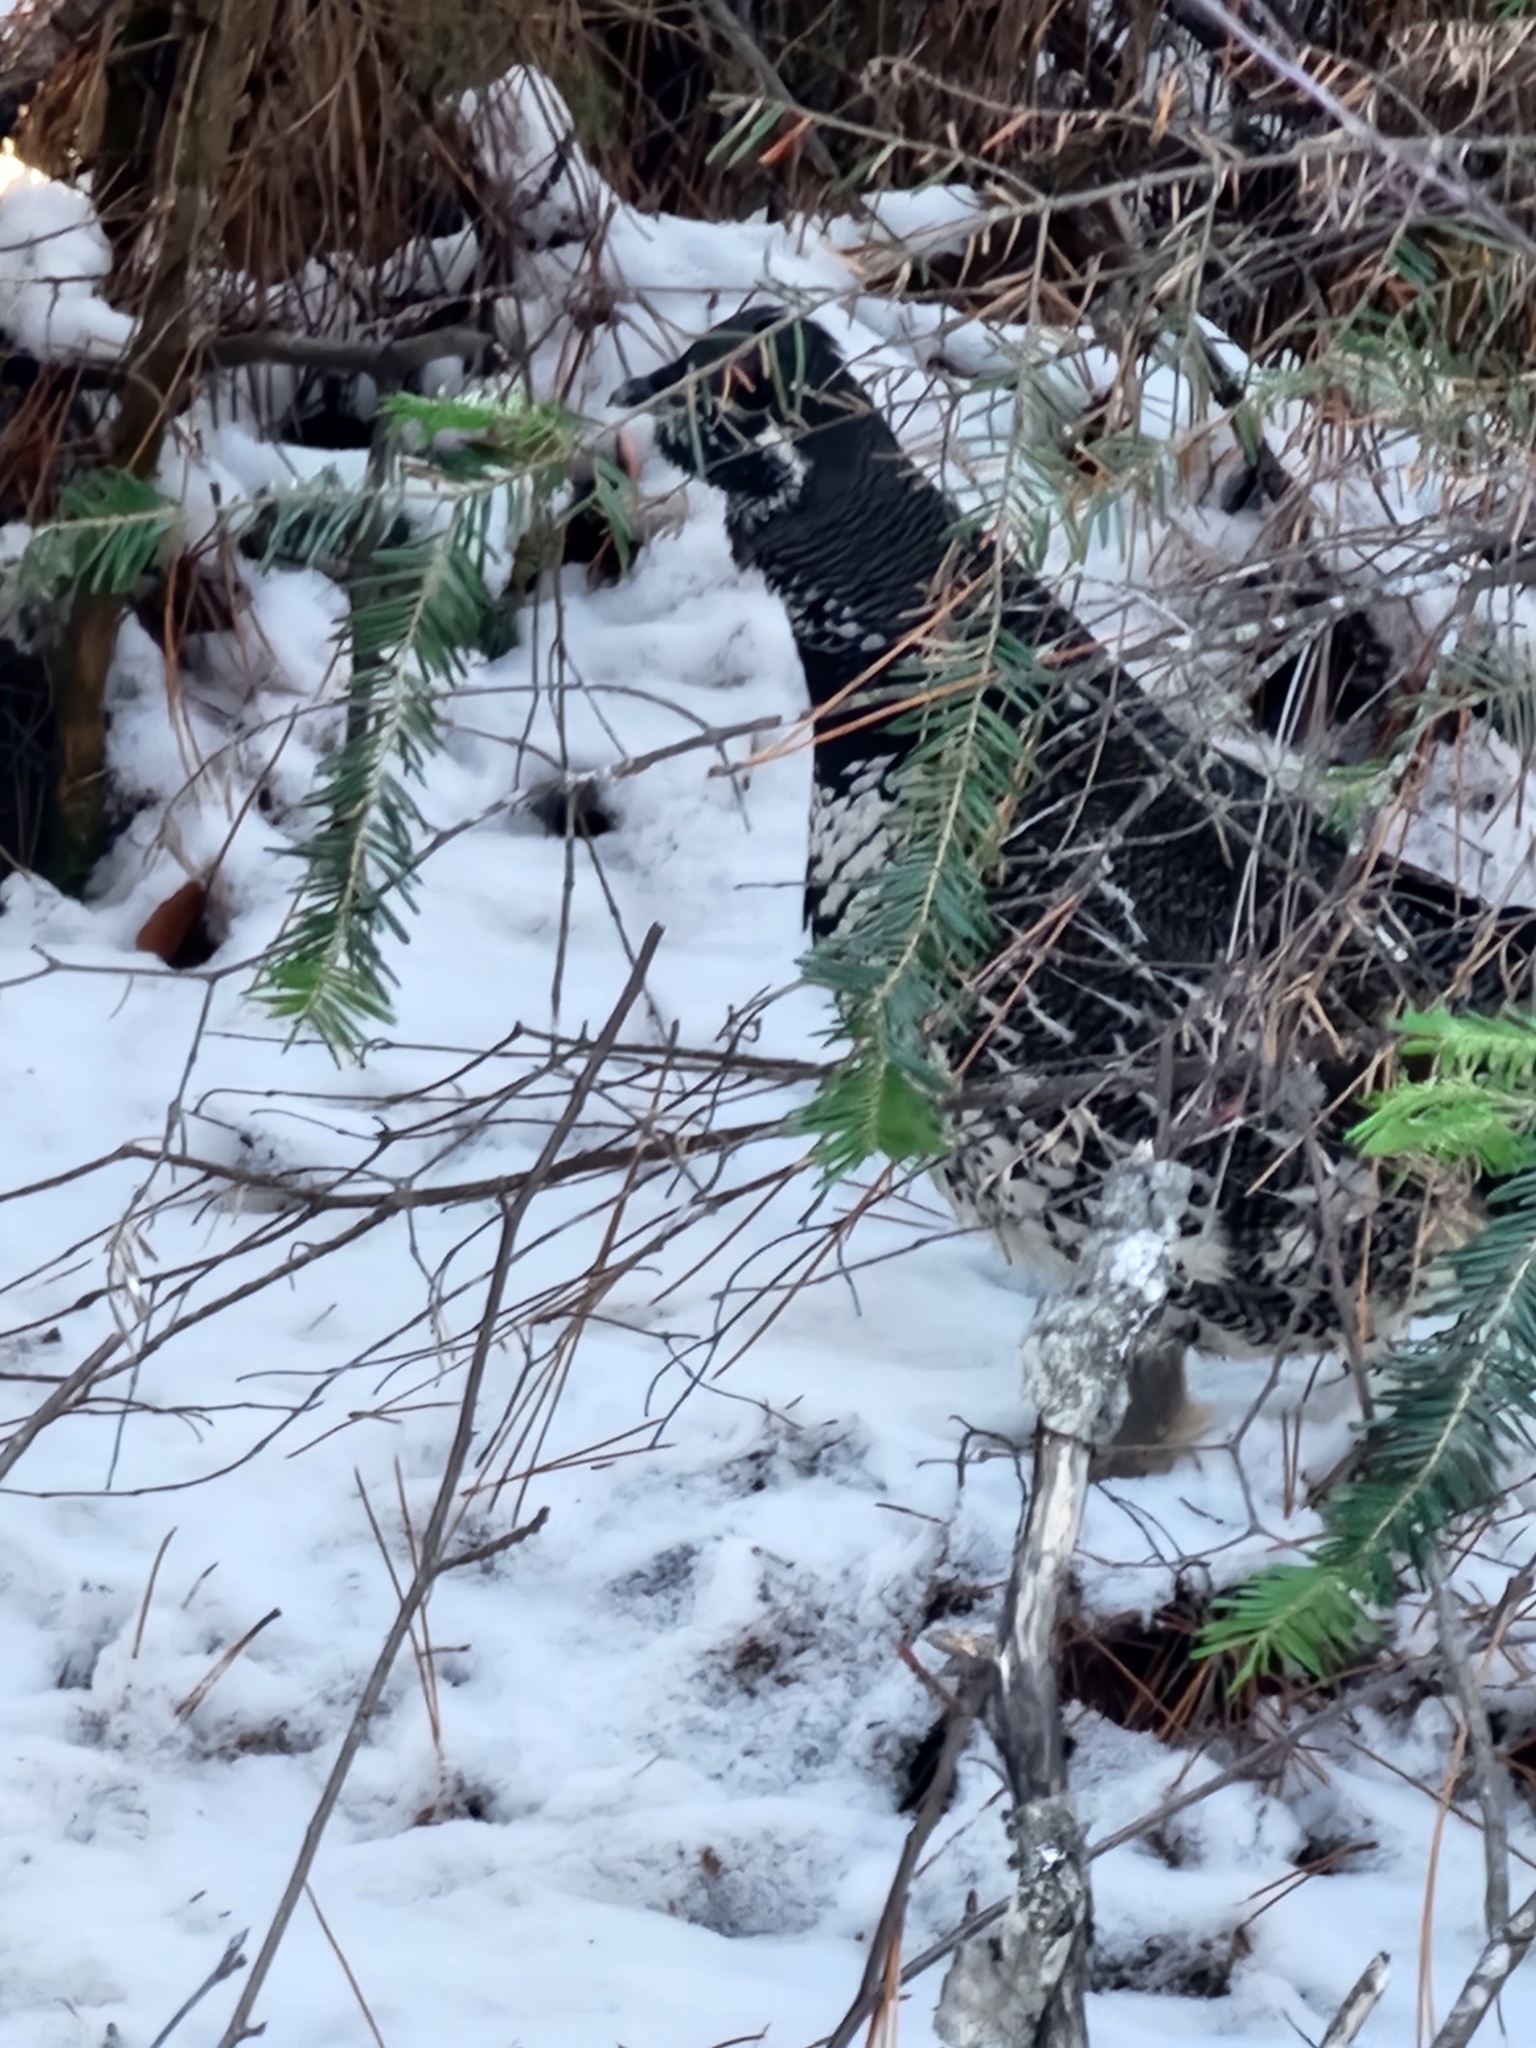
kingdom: Animalia
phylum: Chordata
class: Aves
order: Galliformes
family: Phasianidae
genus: Canachites
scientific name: Canachites canadensis
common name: Spruce grouse
